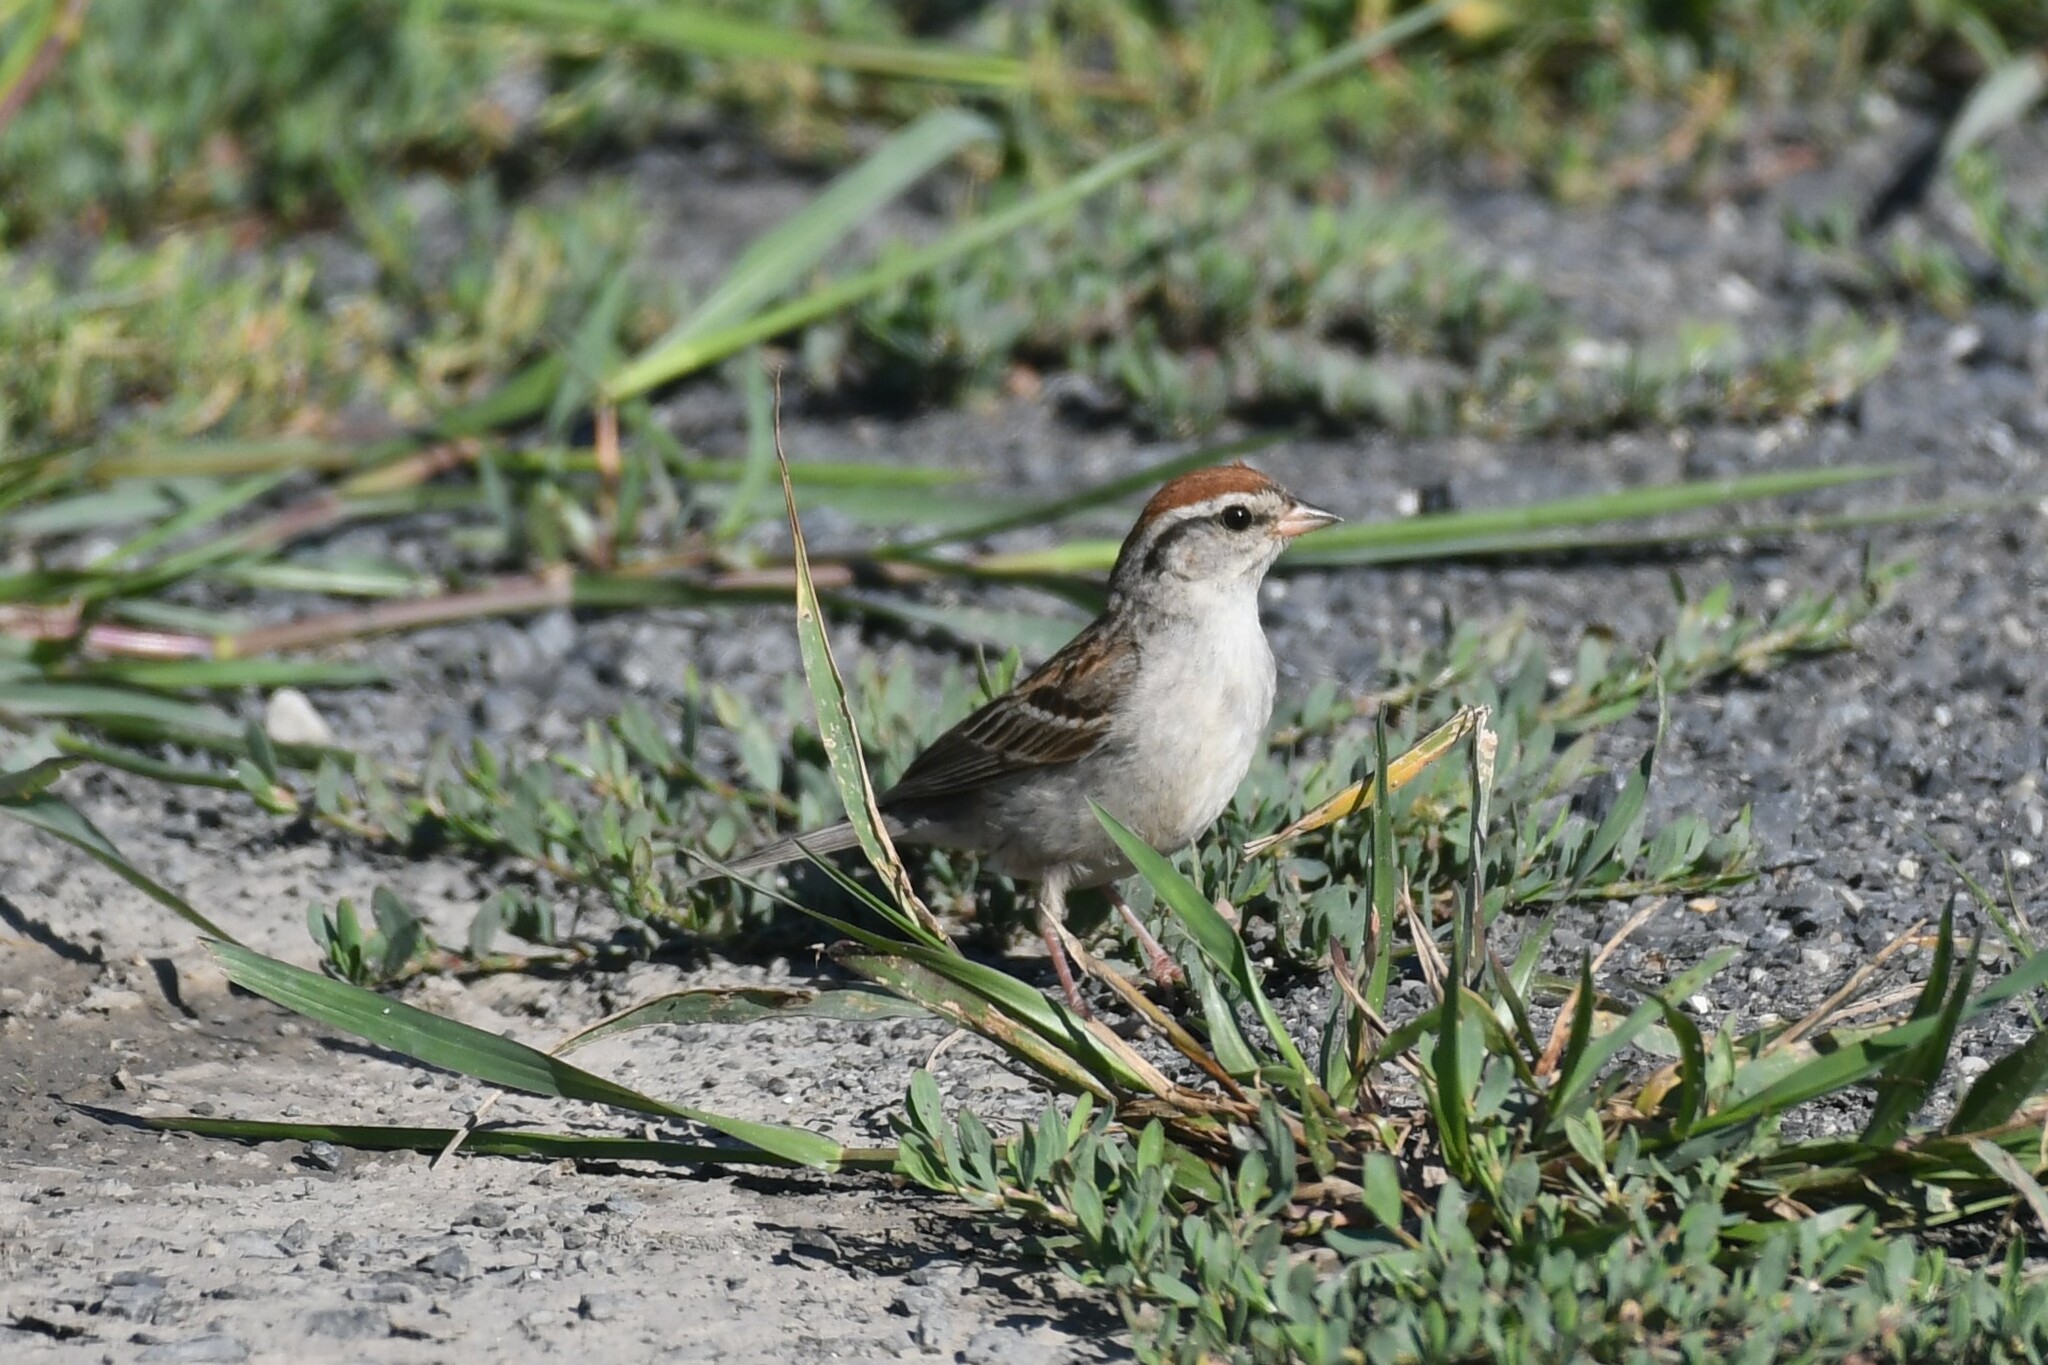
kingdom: Animalia
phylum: Chordata
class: Aves
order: Passeriformes
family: Passerellidae
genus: Spizella
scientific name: Spizella passerina
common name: Chipping sparrow
